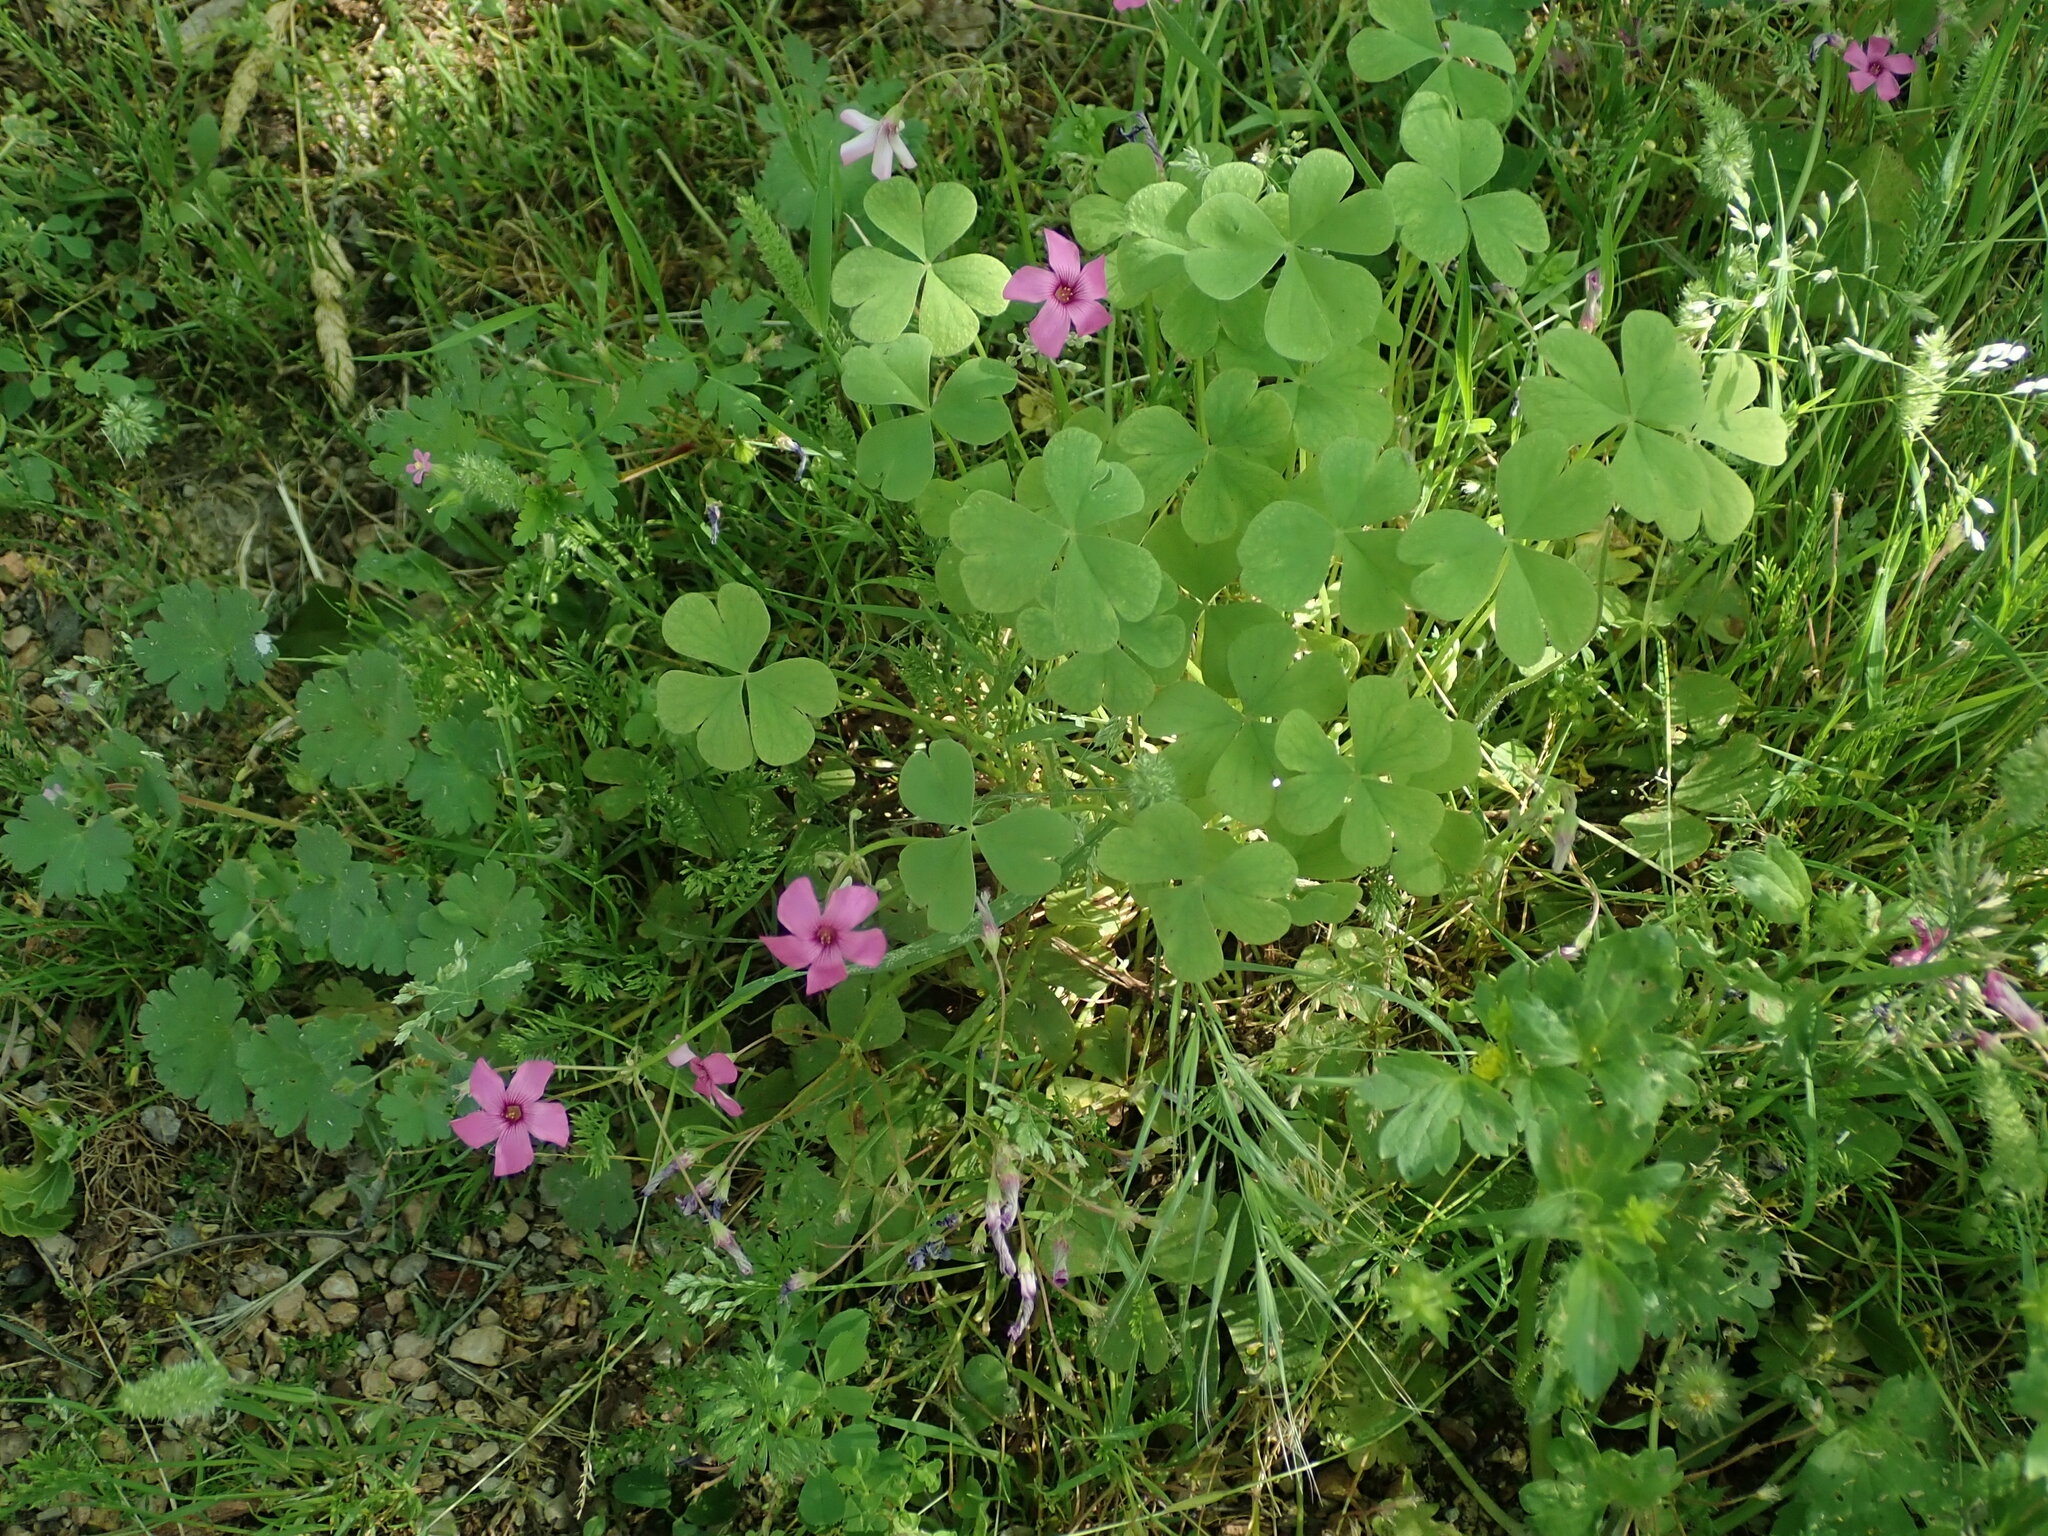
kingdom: Plantae
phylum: Tracheophyta
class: Magnoliopsida
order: Oxalidales
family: Oxalidaceae
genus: Oxalis
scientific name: Oxalis articulata
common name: Pink-sorrel
